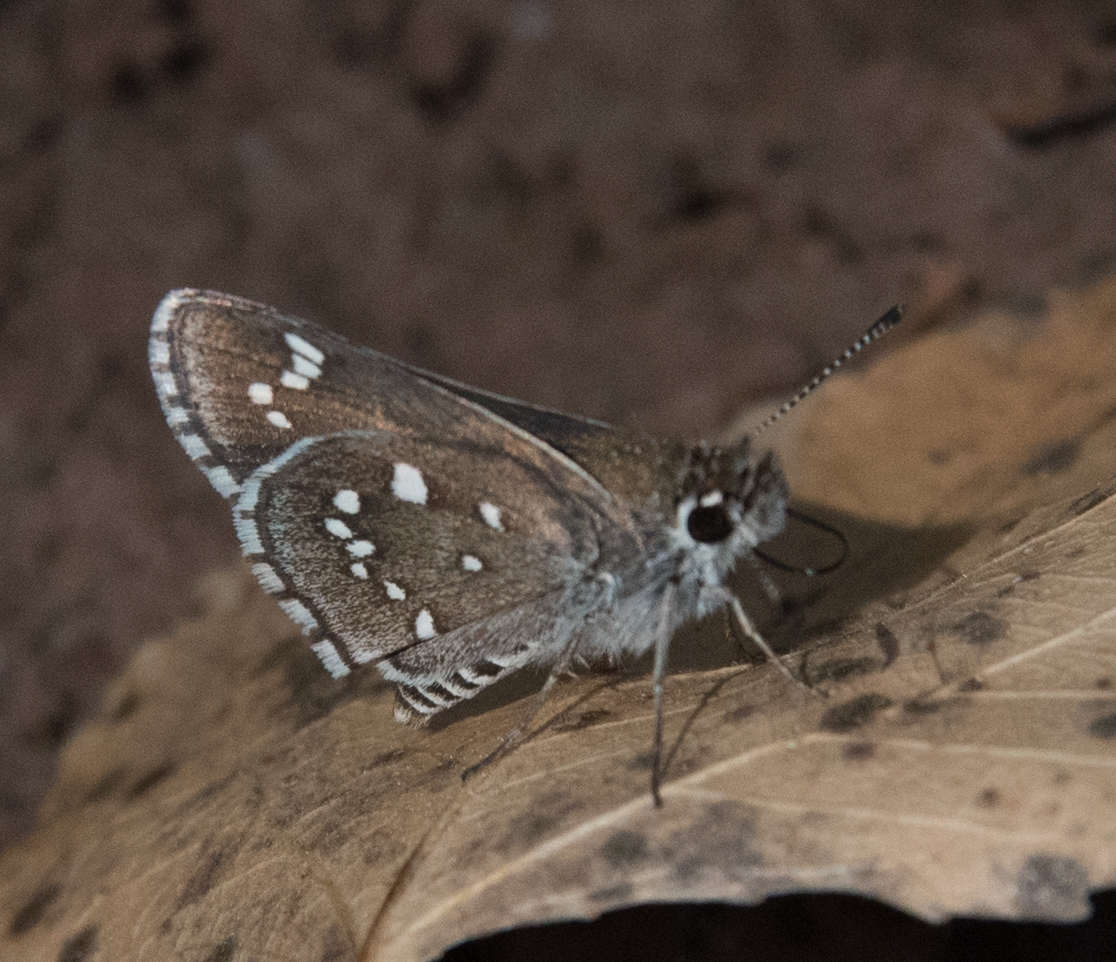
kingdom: Animalia
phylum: Arthropoda
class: Insecta
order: Lepidoptera
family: Hesperiidae
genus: Mastor
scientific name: Mastor eos
